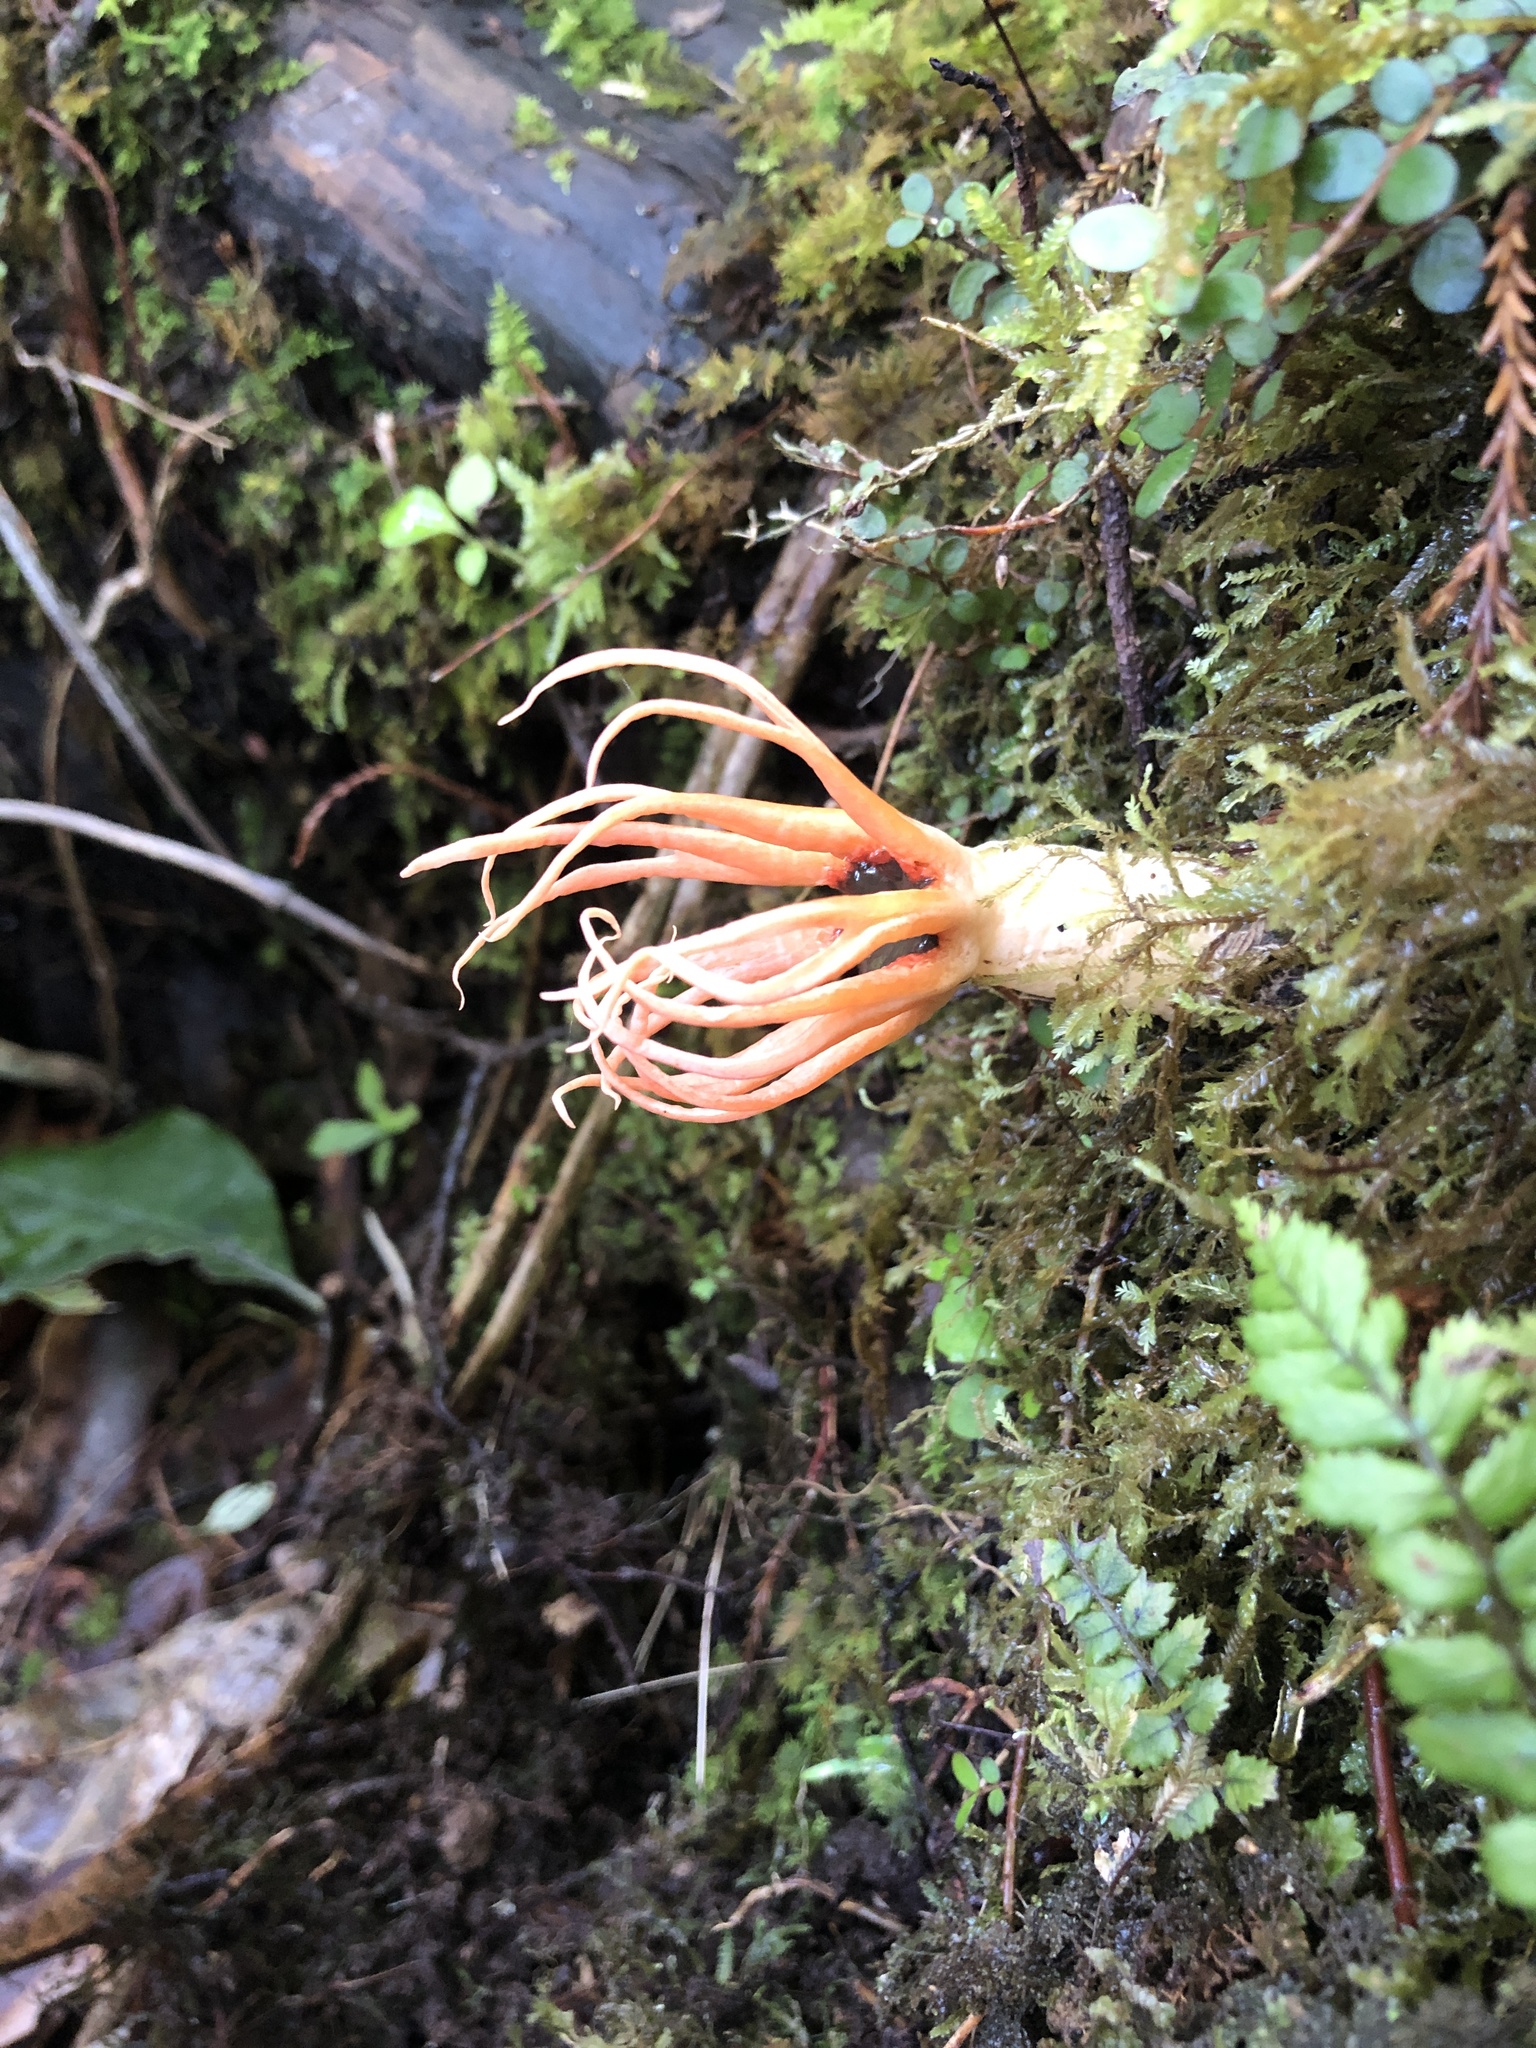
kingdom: Fungi
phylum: Basidiomycota
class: Agaricomycetes
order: Phallales
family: Phallaceae
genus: Aseroe
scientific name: Aseroe rubra
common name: Starfish fungus
